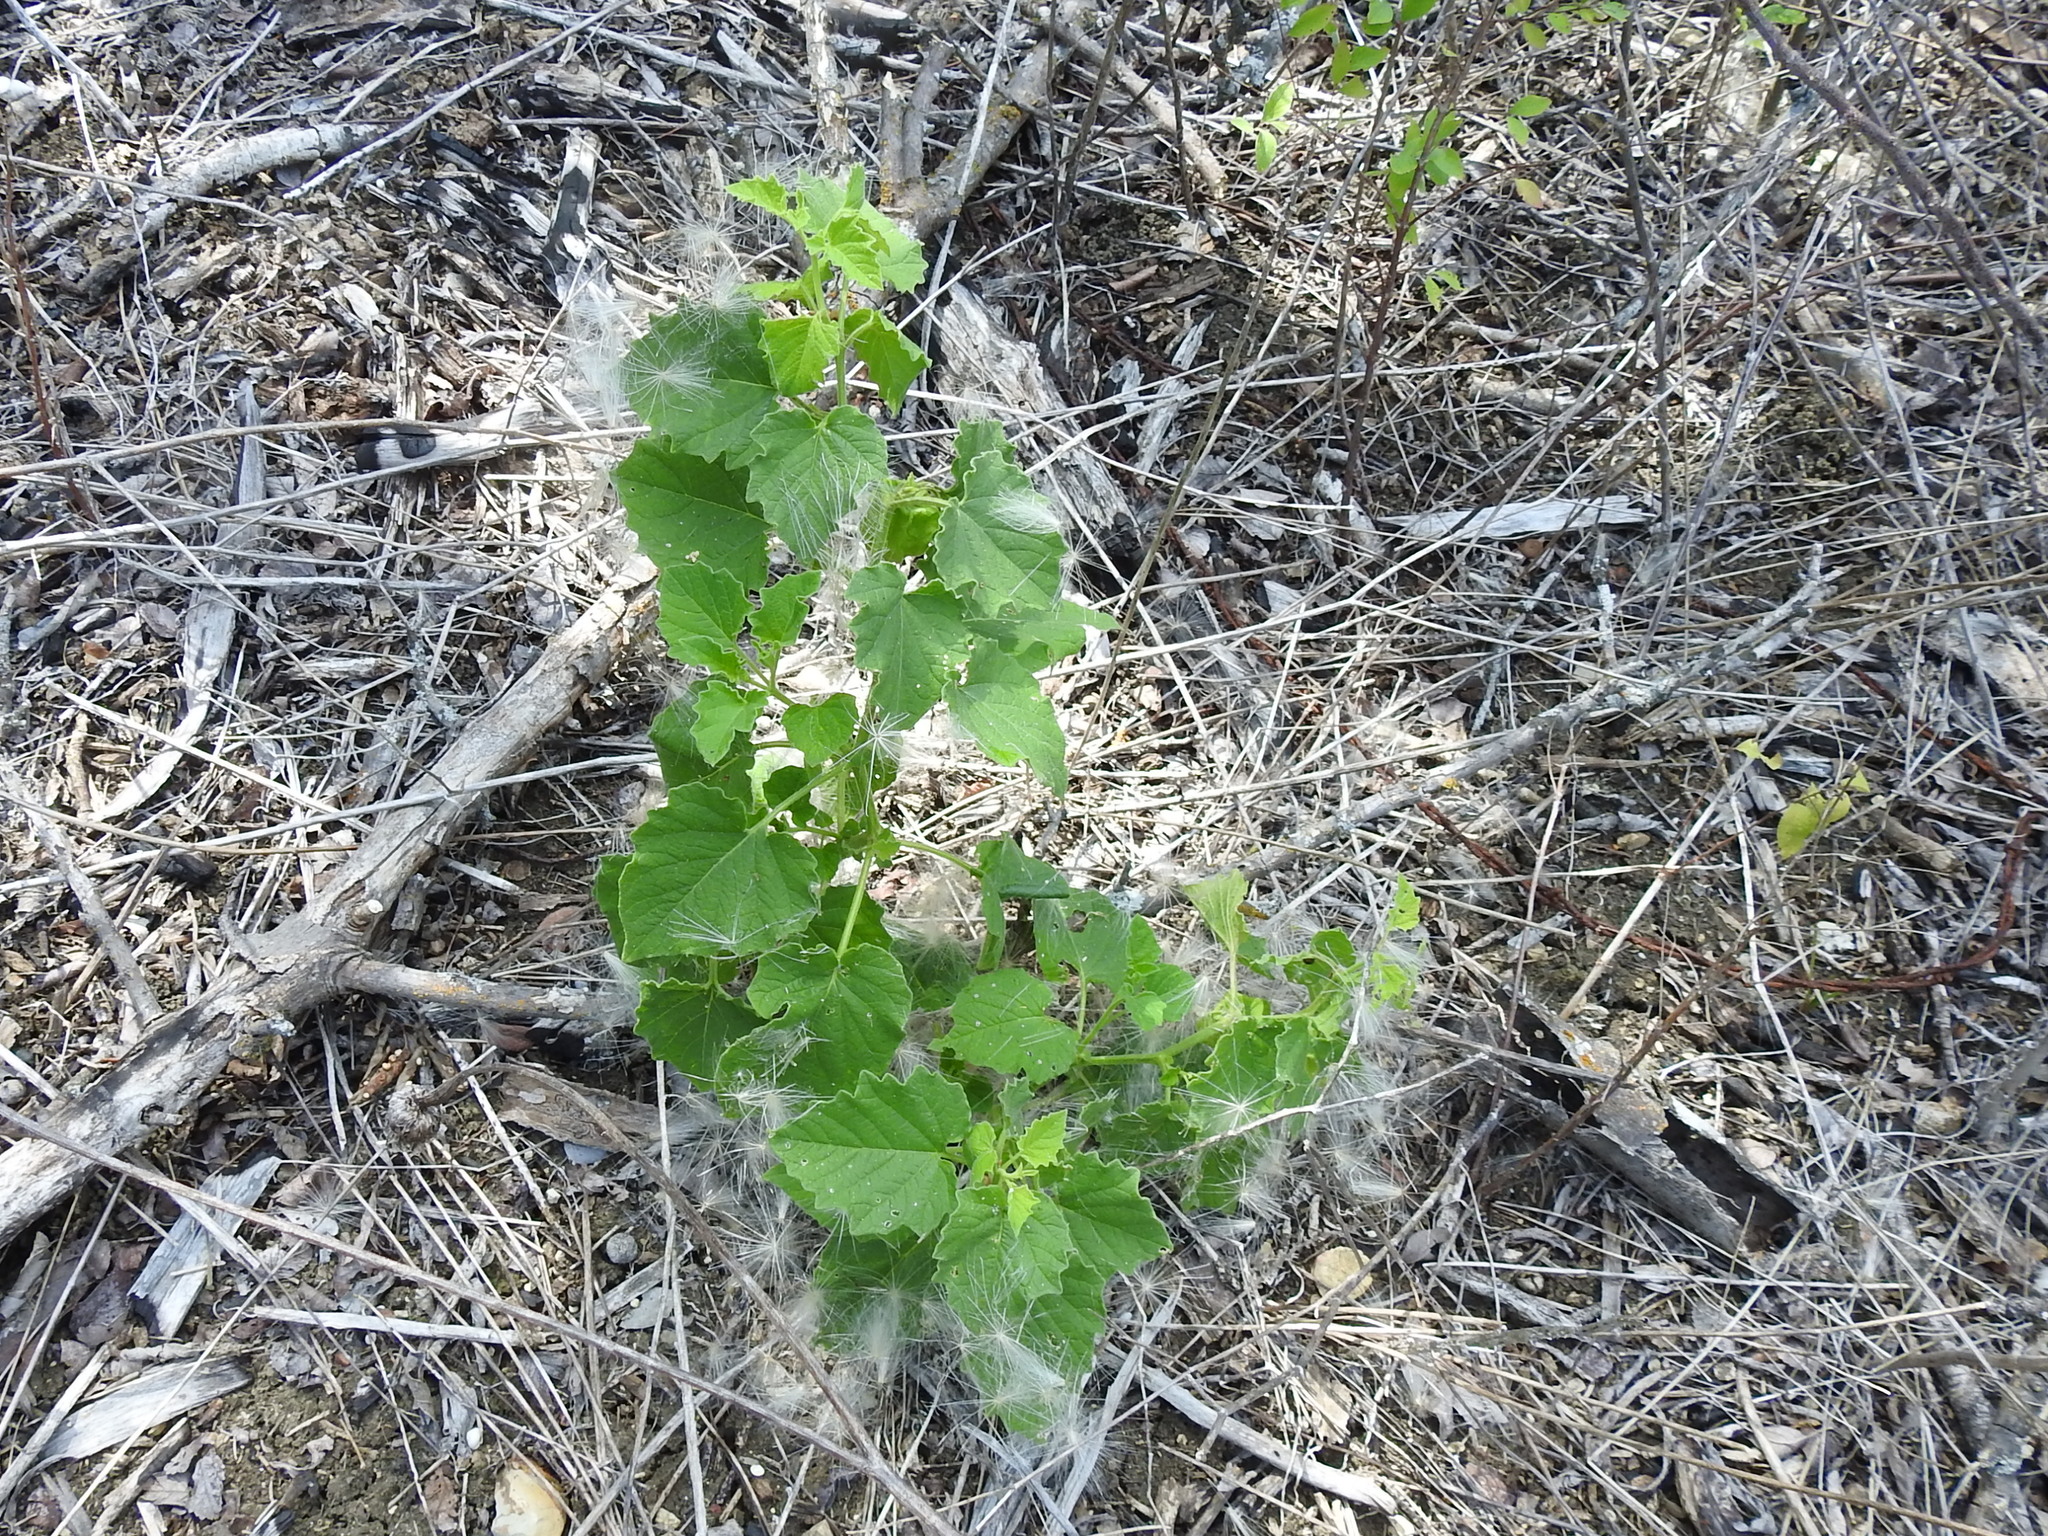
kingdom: Plantae
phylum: Tracheophyta
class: Magnoliopsida
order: Solanales
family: Solanaceae
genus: Physalis
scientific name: Physalis heterophylla
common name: Clammy ground-cherry
